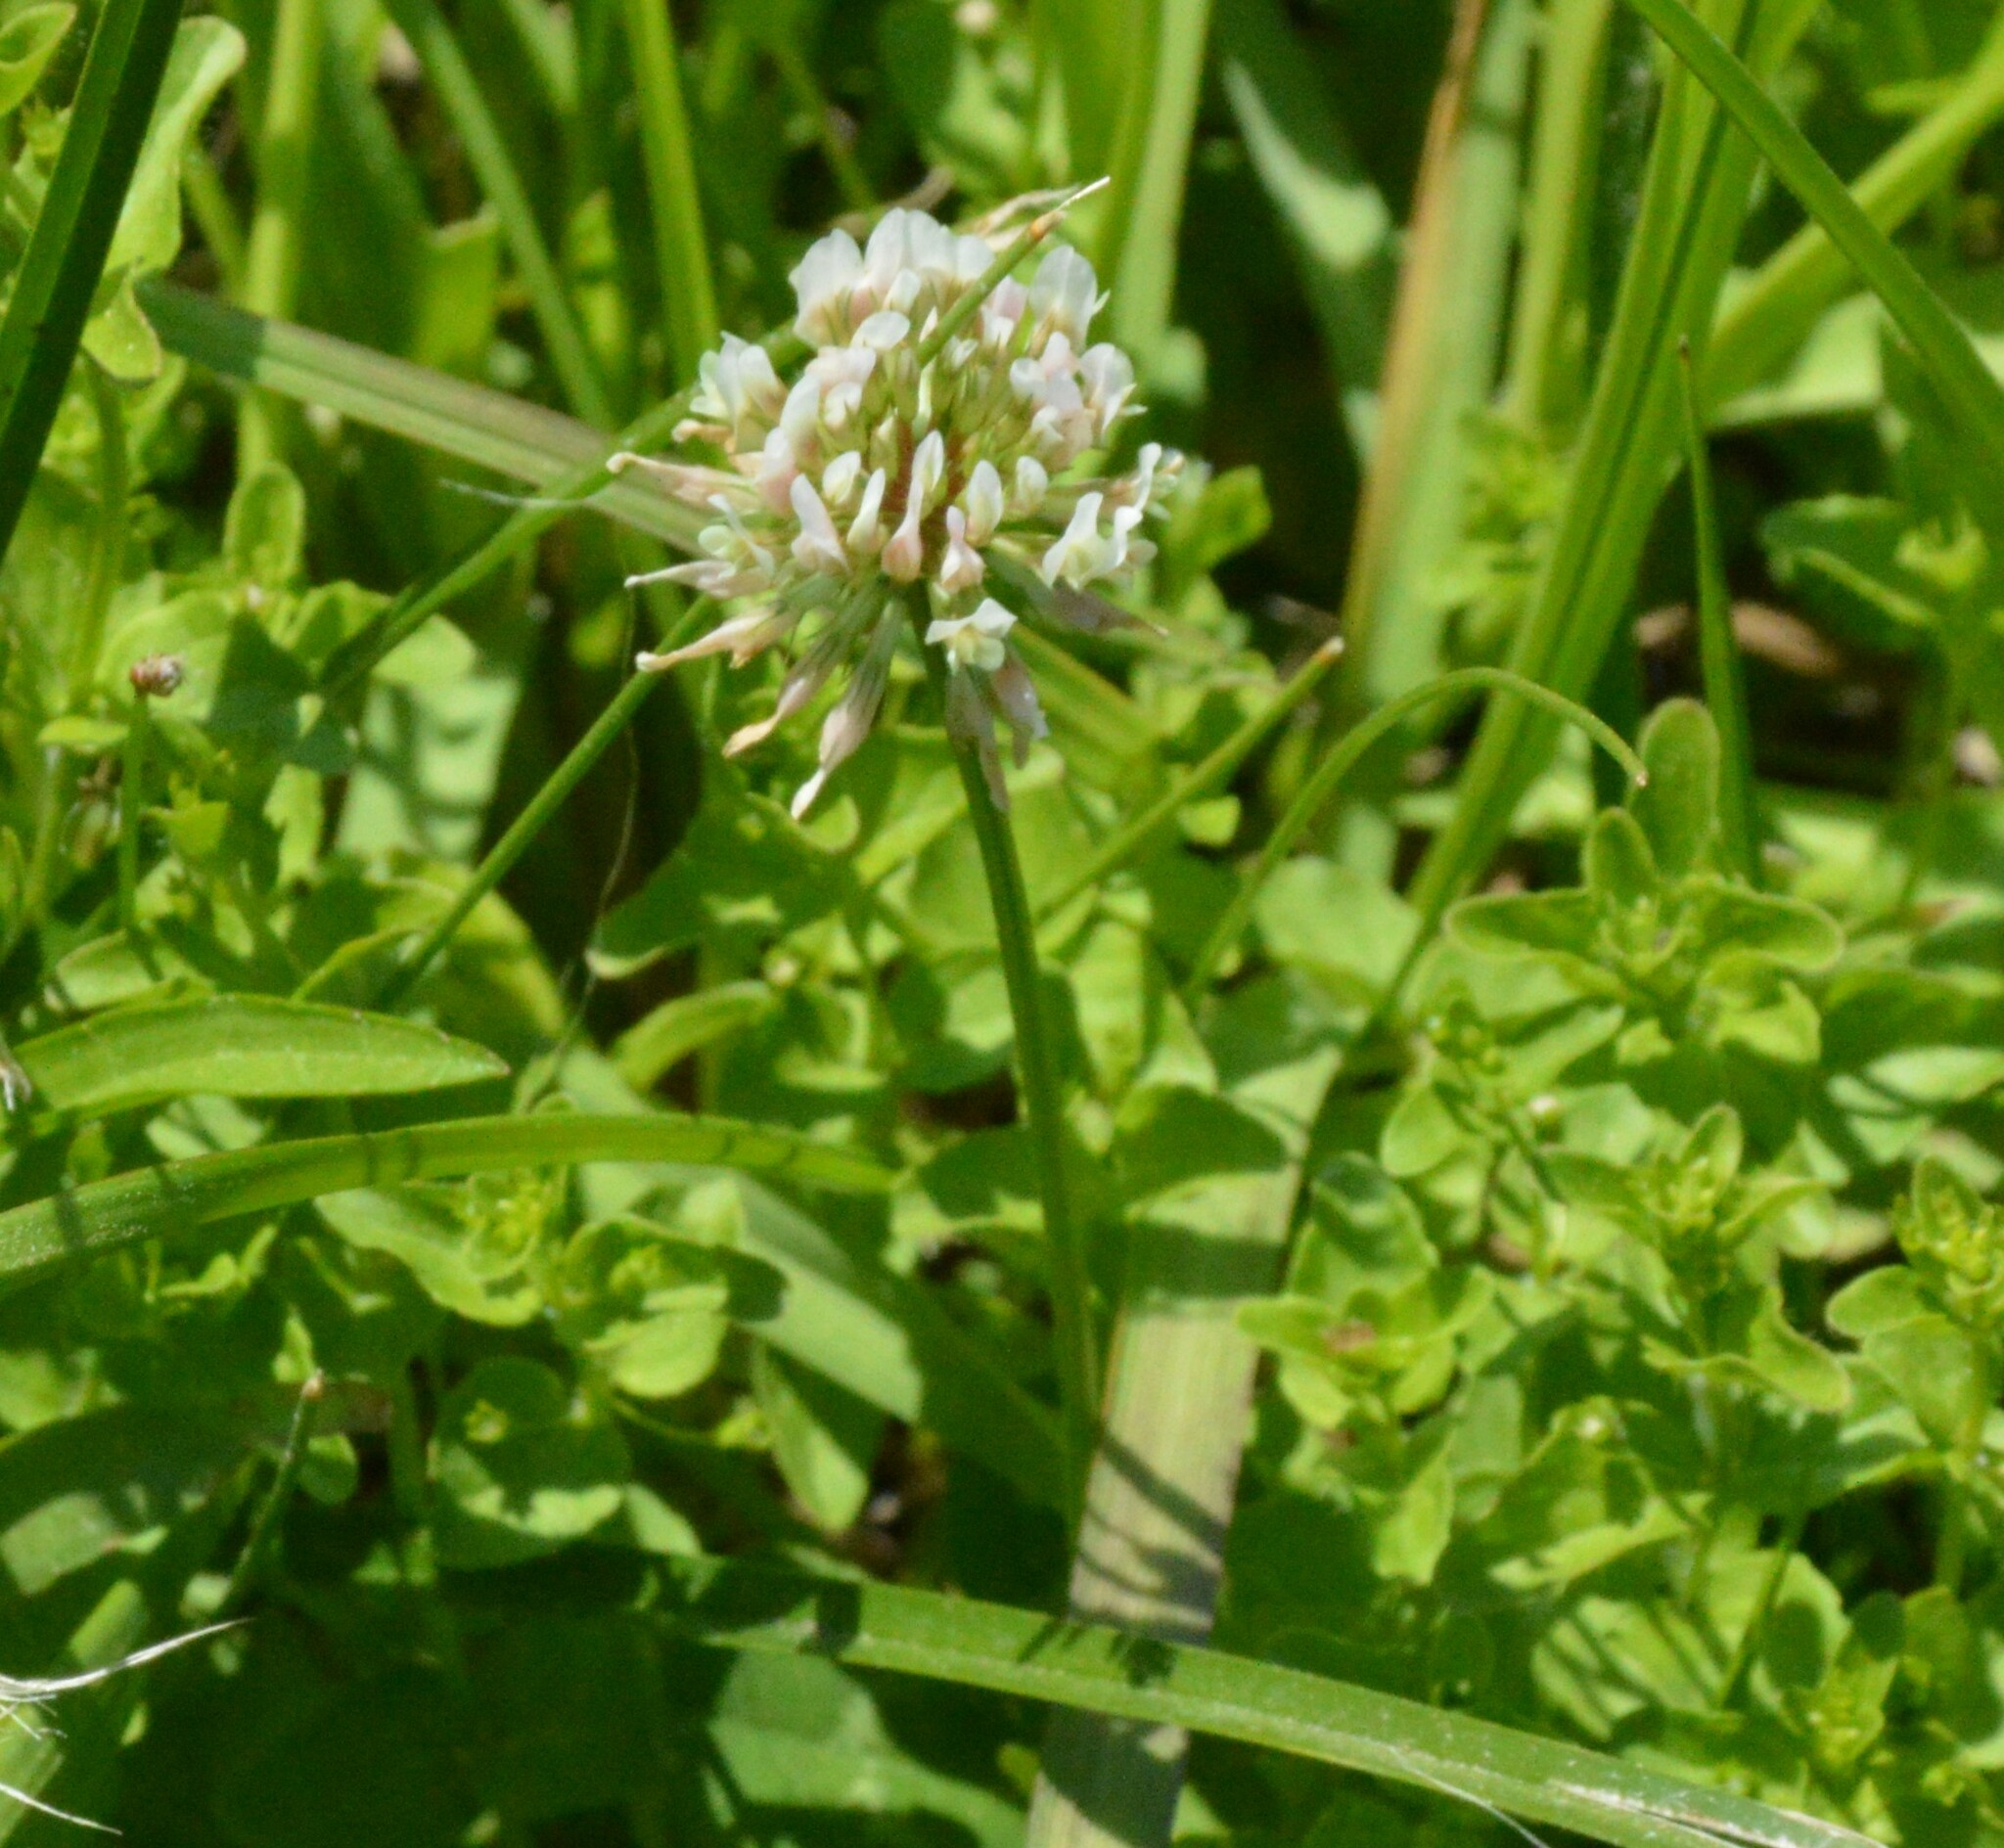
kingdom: Plantae
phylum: Tracheophyta
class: Magnoliopsida
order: Fabales
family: Fabaceae
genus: Trifolium
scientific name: Trifolium repens
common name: White clover
